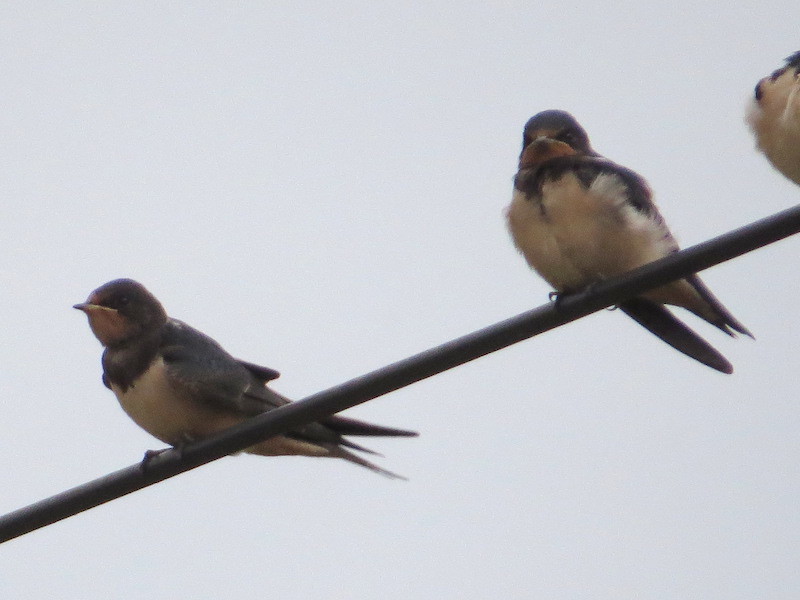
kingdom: Animalia
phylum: Chordata
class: Aves
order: Passeriformes
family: Hirundinidae
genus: Hirundo
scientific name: Hirundo rustica
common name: Barn swallow
